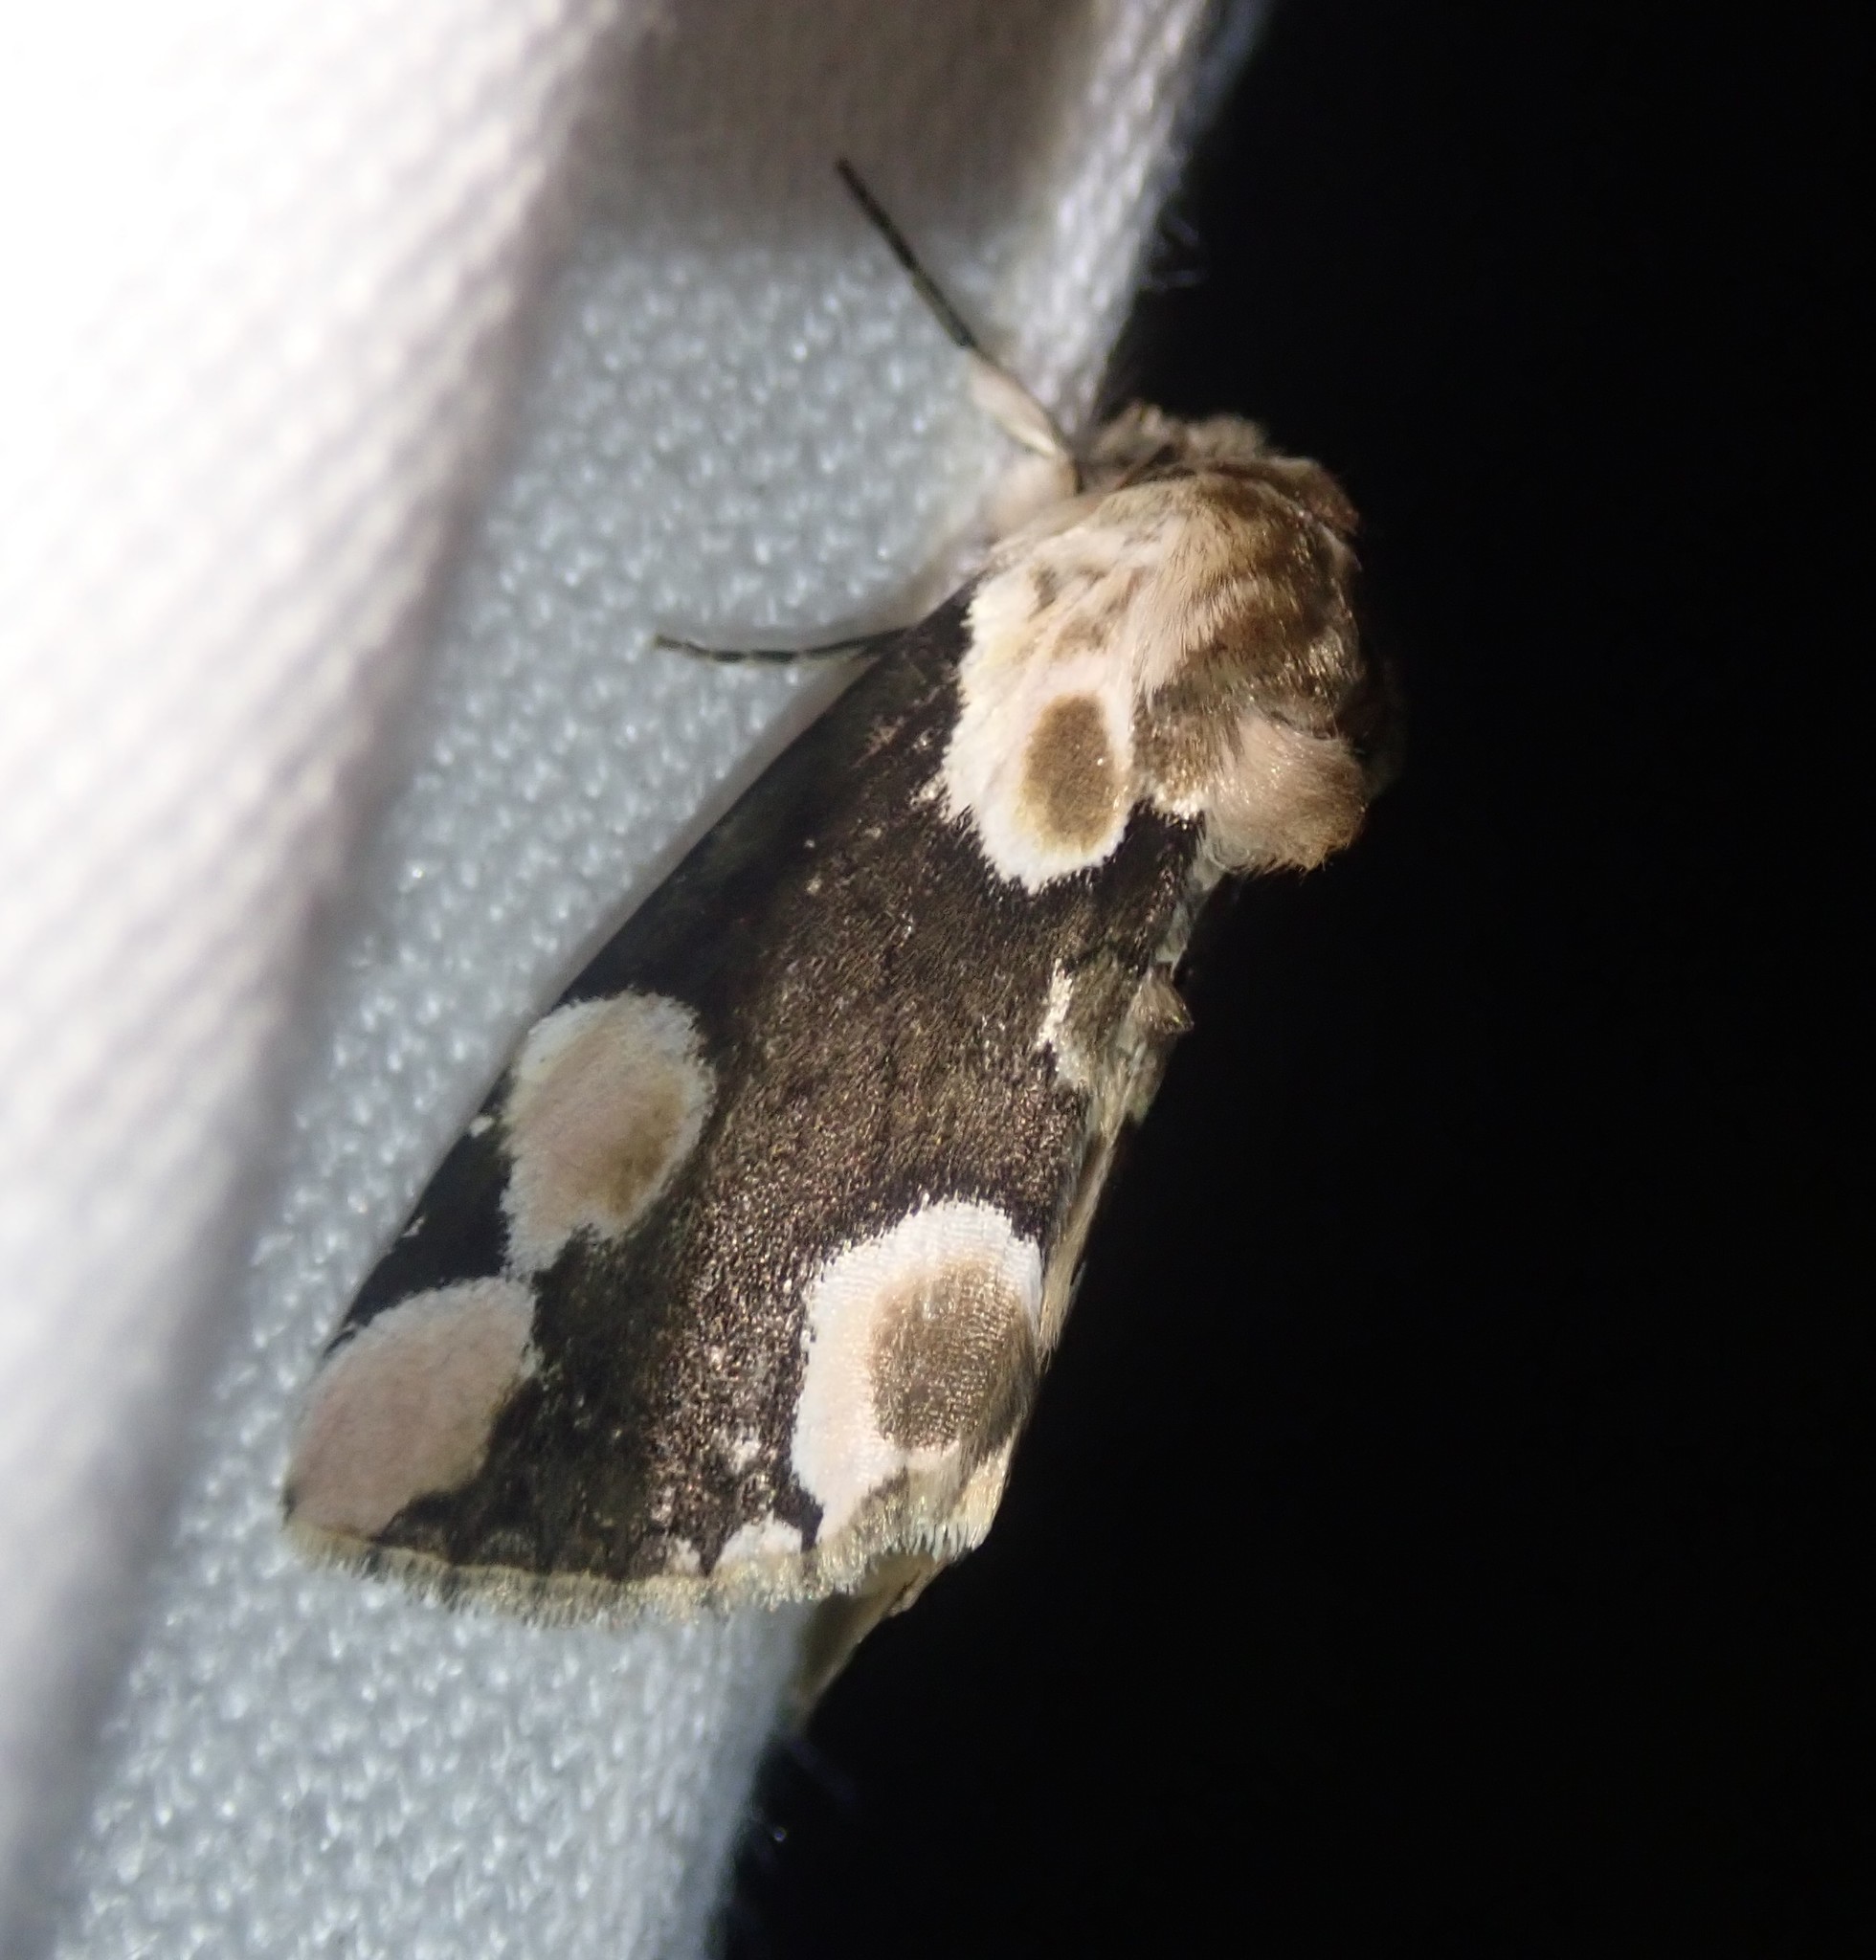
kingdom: Animalia
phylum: Arthropoda
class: Insecta
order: Lepidoptera
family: Drepanidae
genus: Thyatira
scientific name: Thyatira batis
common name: Peach blossom
